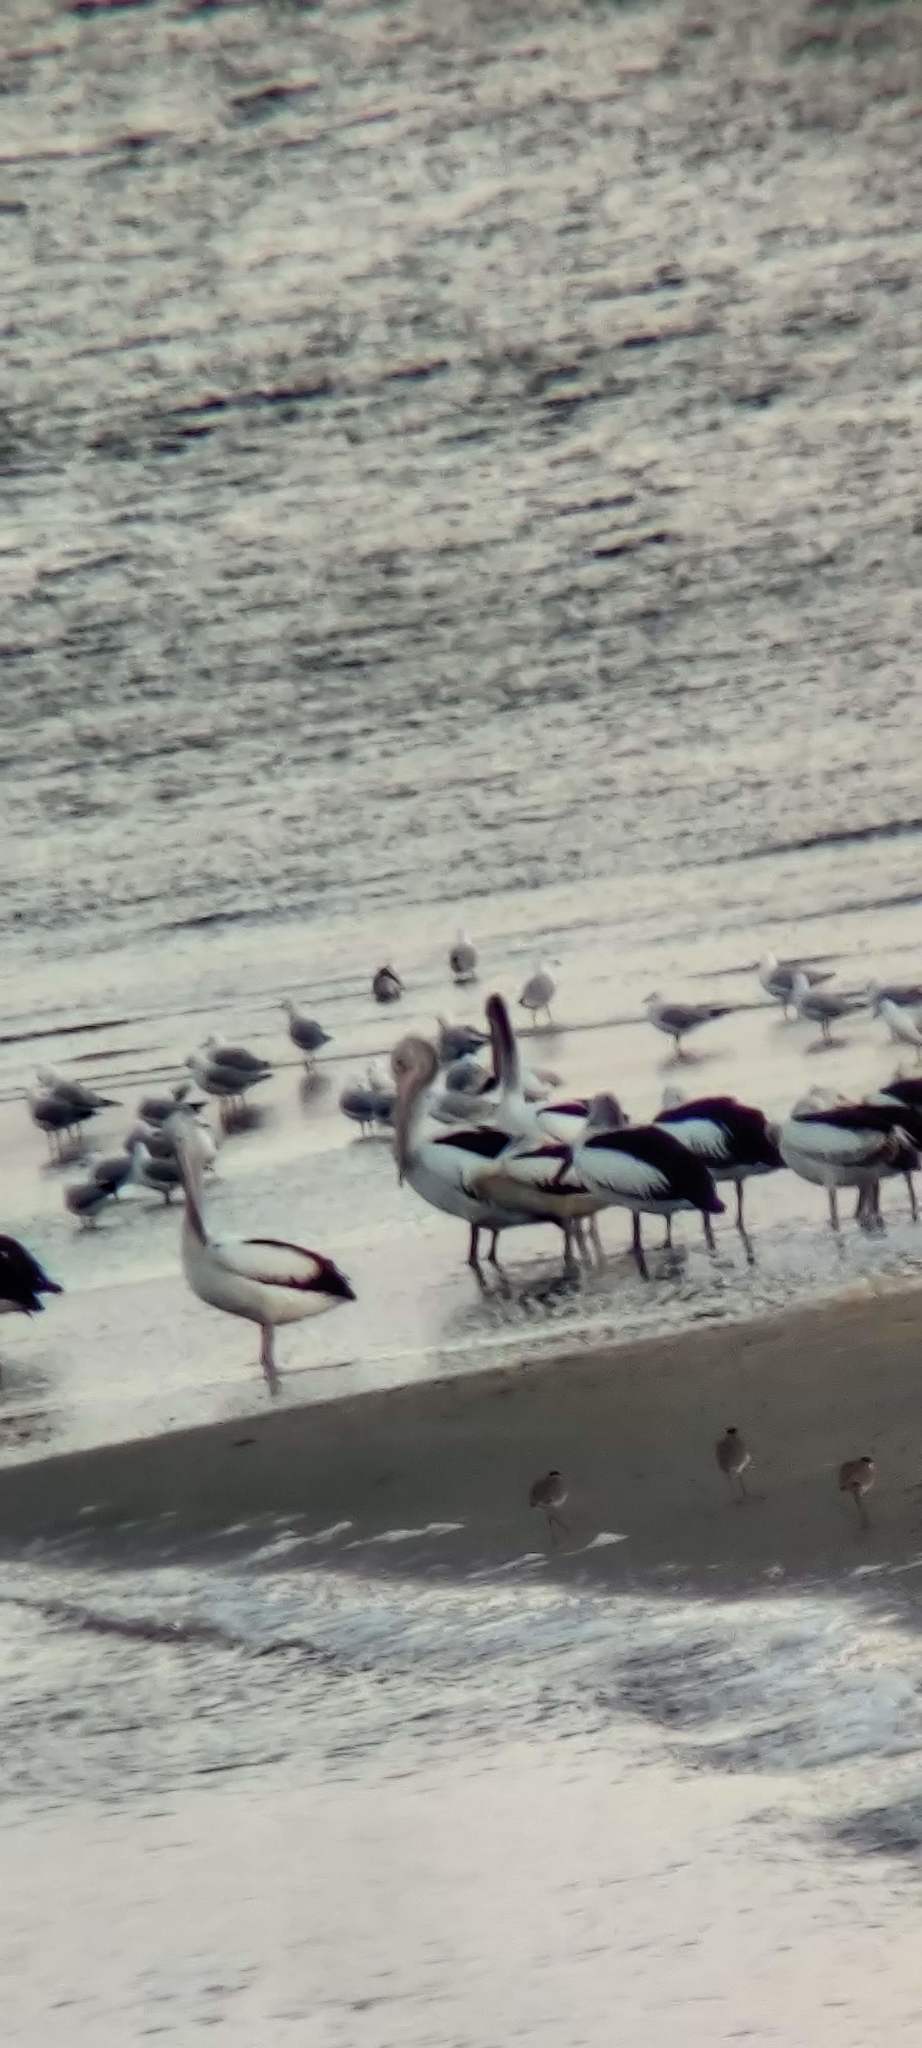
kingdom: Animalia
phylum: Chordata
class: Aves
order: Pelecaniformes
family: Pelecanidae
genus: Pelecanus
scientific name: Pelecanus conspicillatus
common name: Australian pelican
